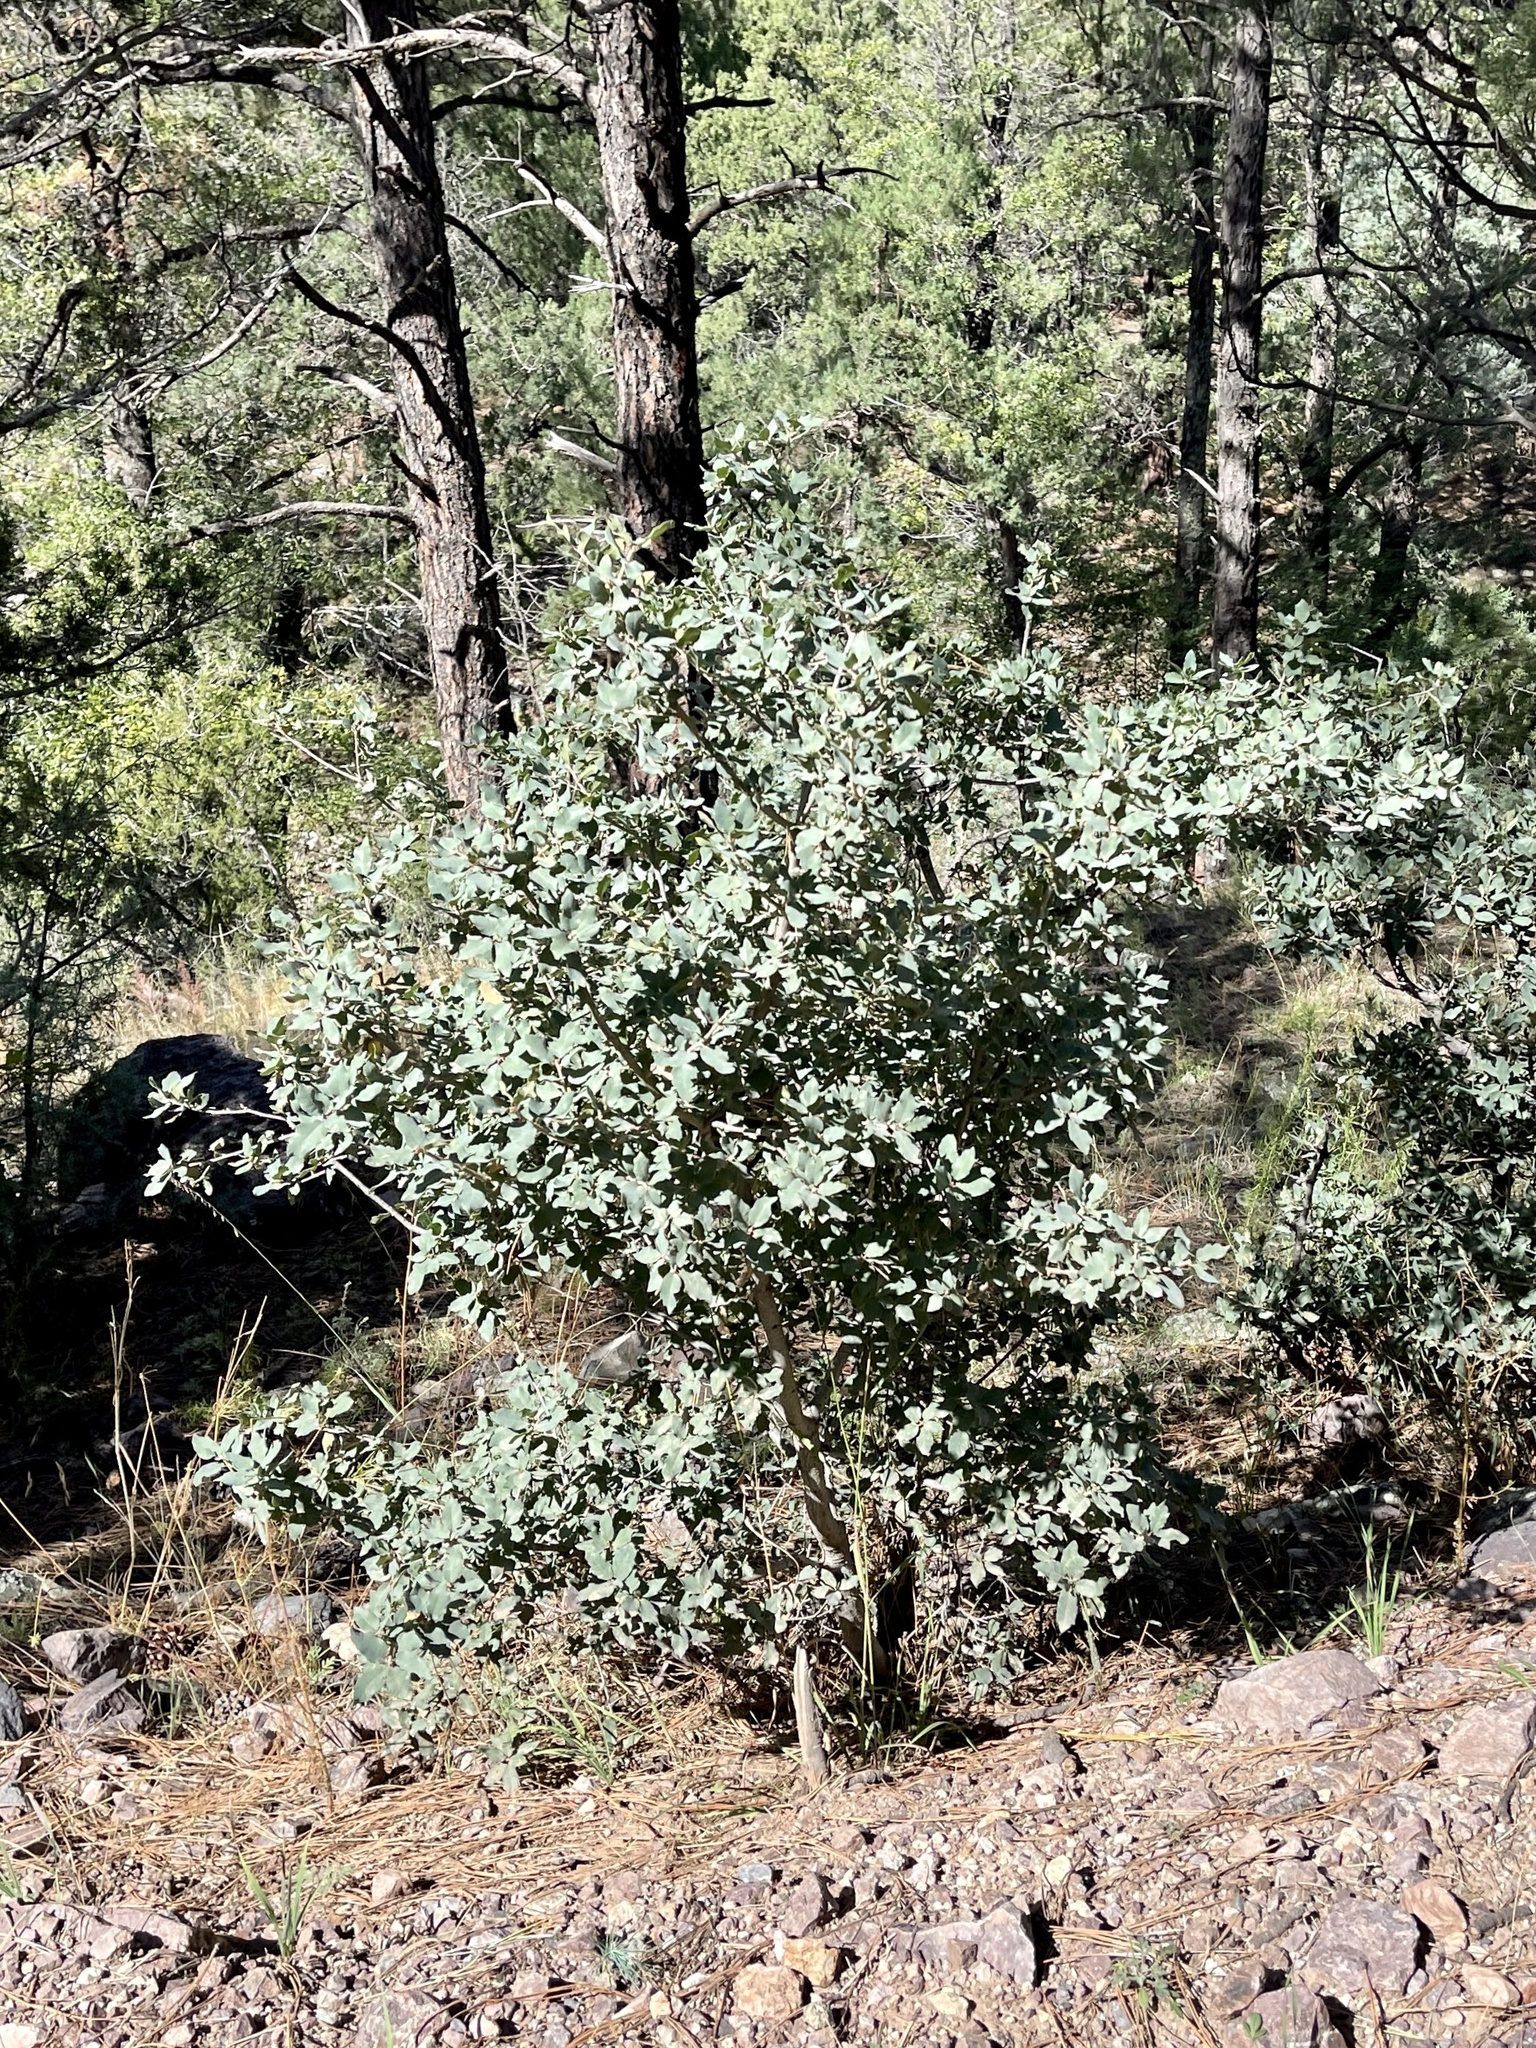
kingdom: Plantae
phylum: Tracheophyta
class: Magnoliopsida
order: Fagales
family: Fagaceae
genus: Quercus
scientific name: Quercus grisea
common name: Gray oak
